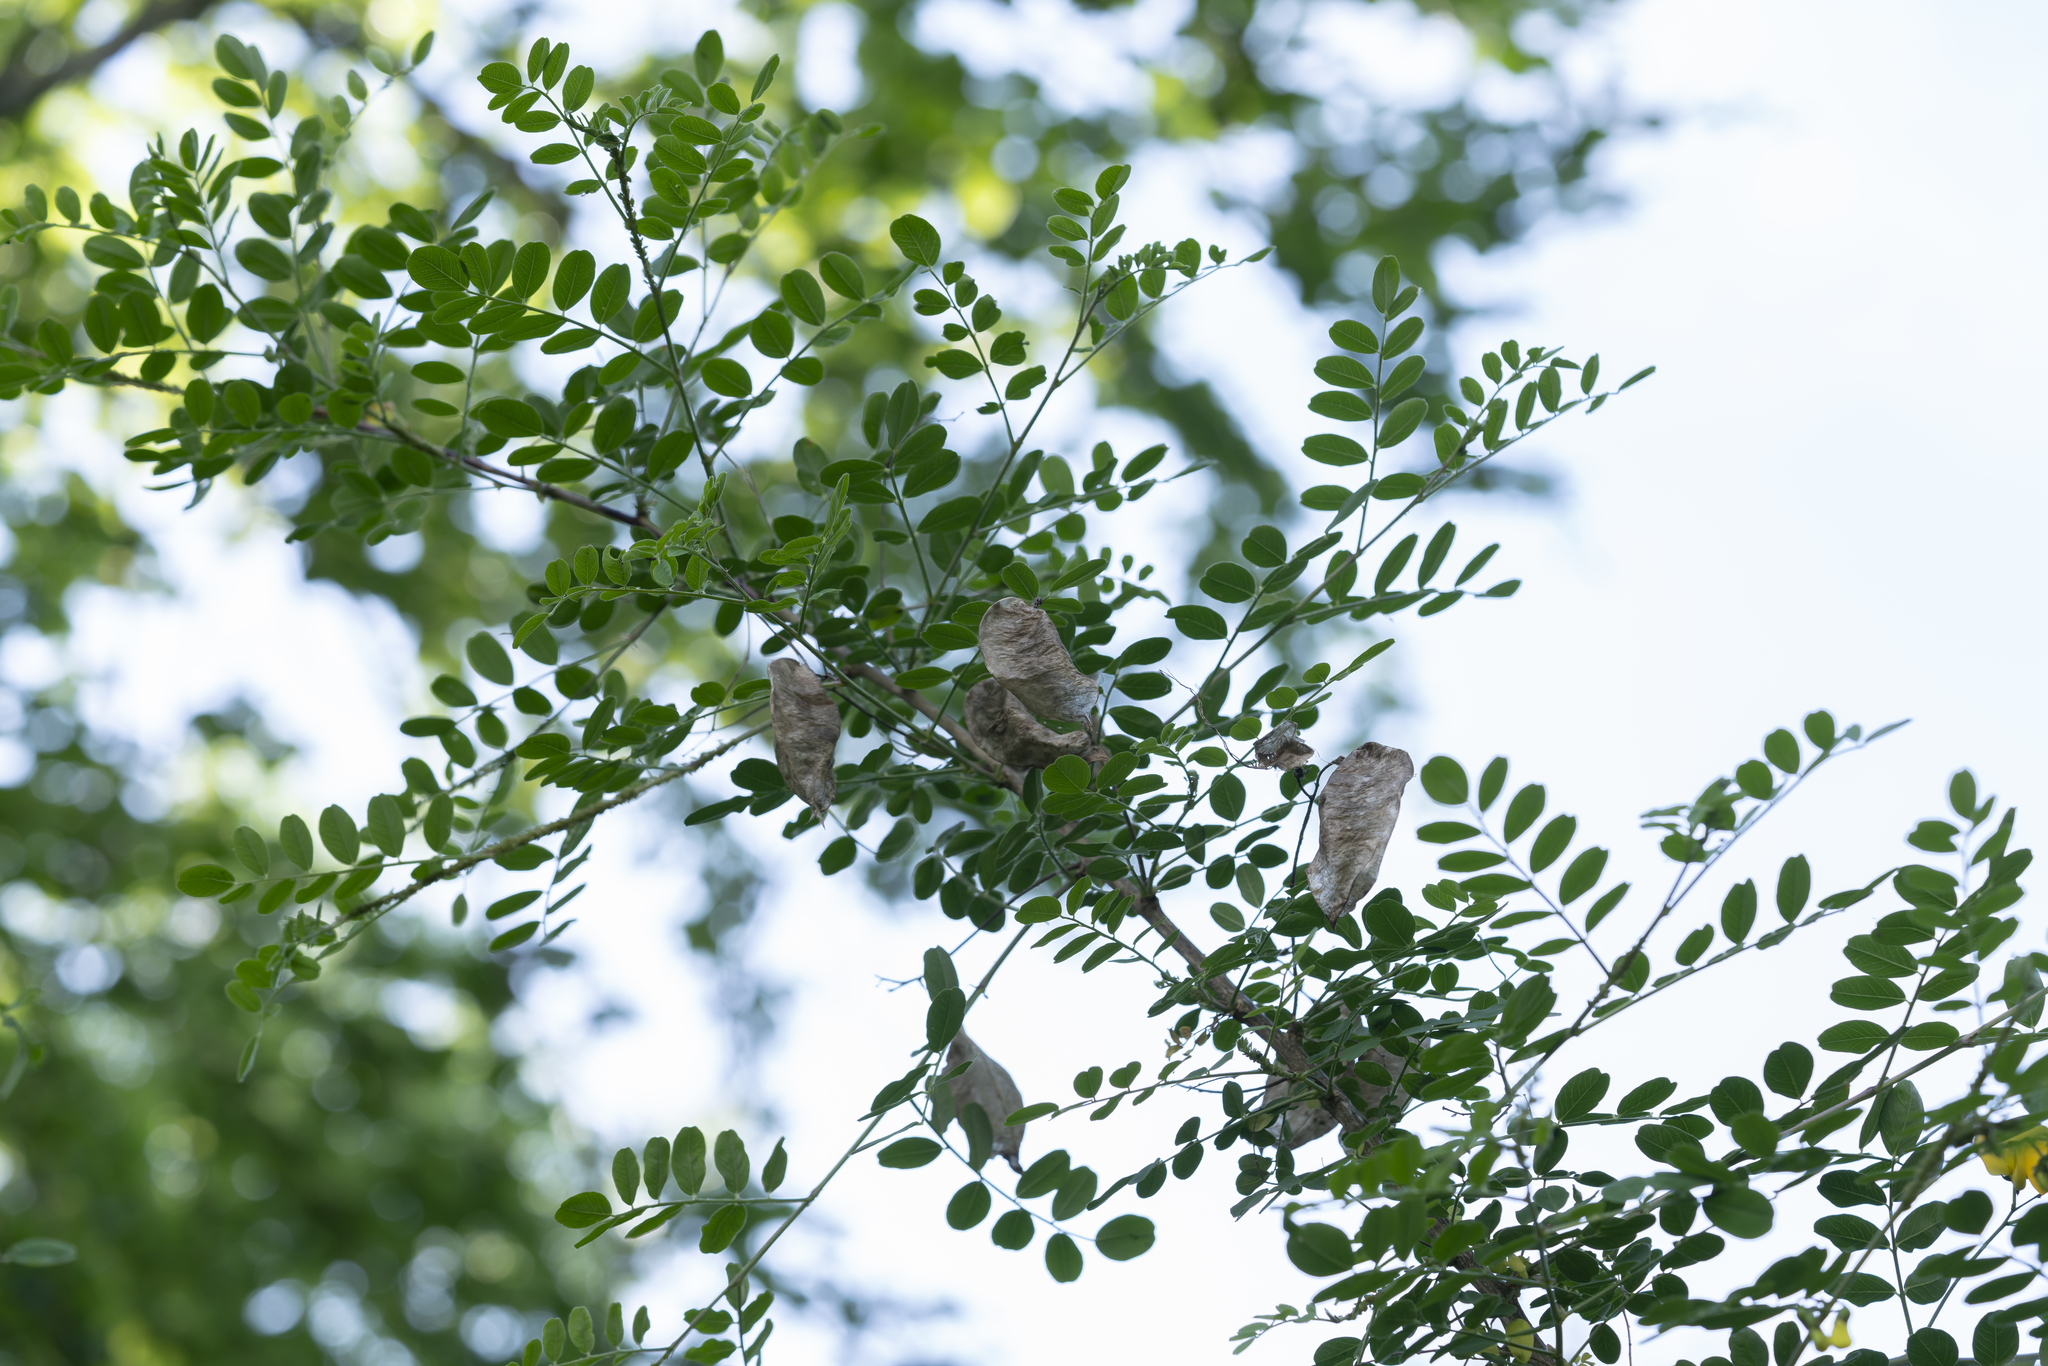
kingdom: Plantae
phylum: Tracheophyta
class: Magnoliopsida
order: Fabales
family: Fabaceae
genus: Colutea
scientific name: Colutea arborescens
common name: Bladder-senna
